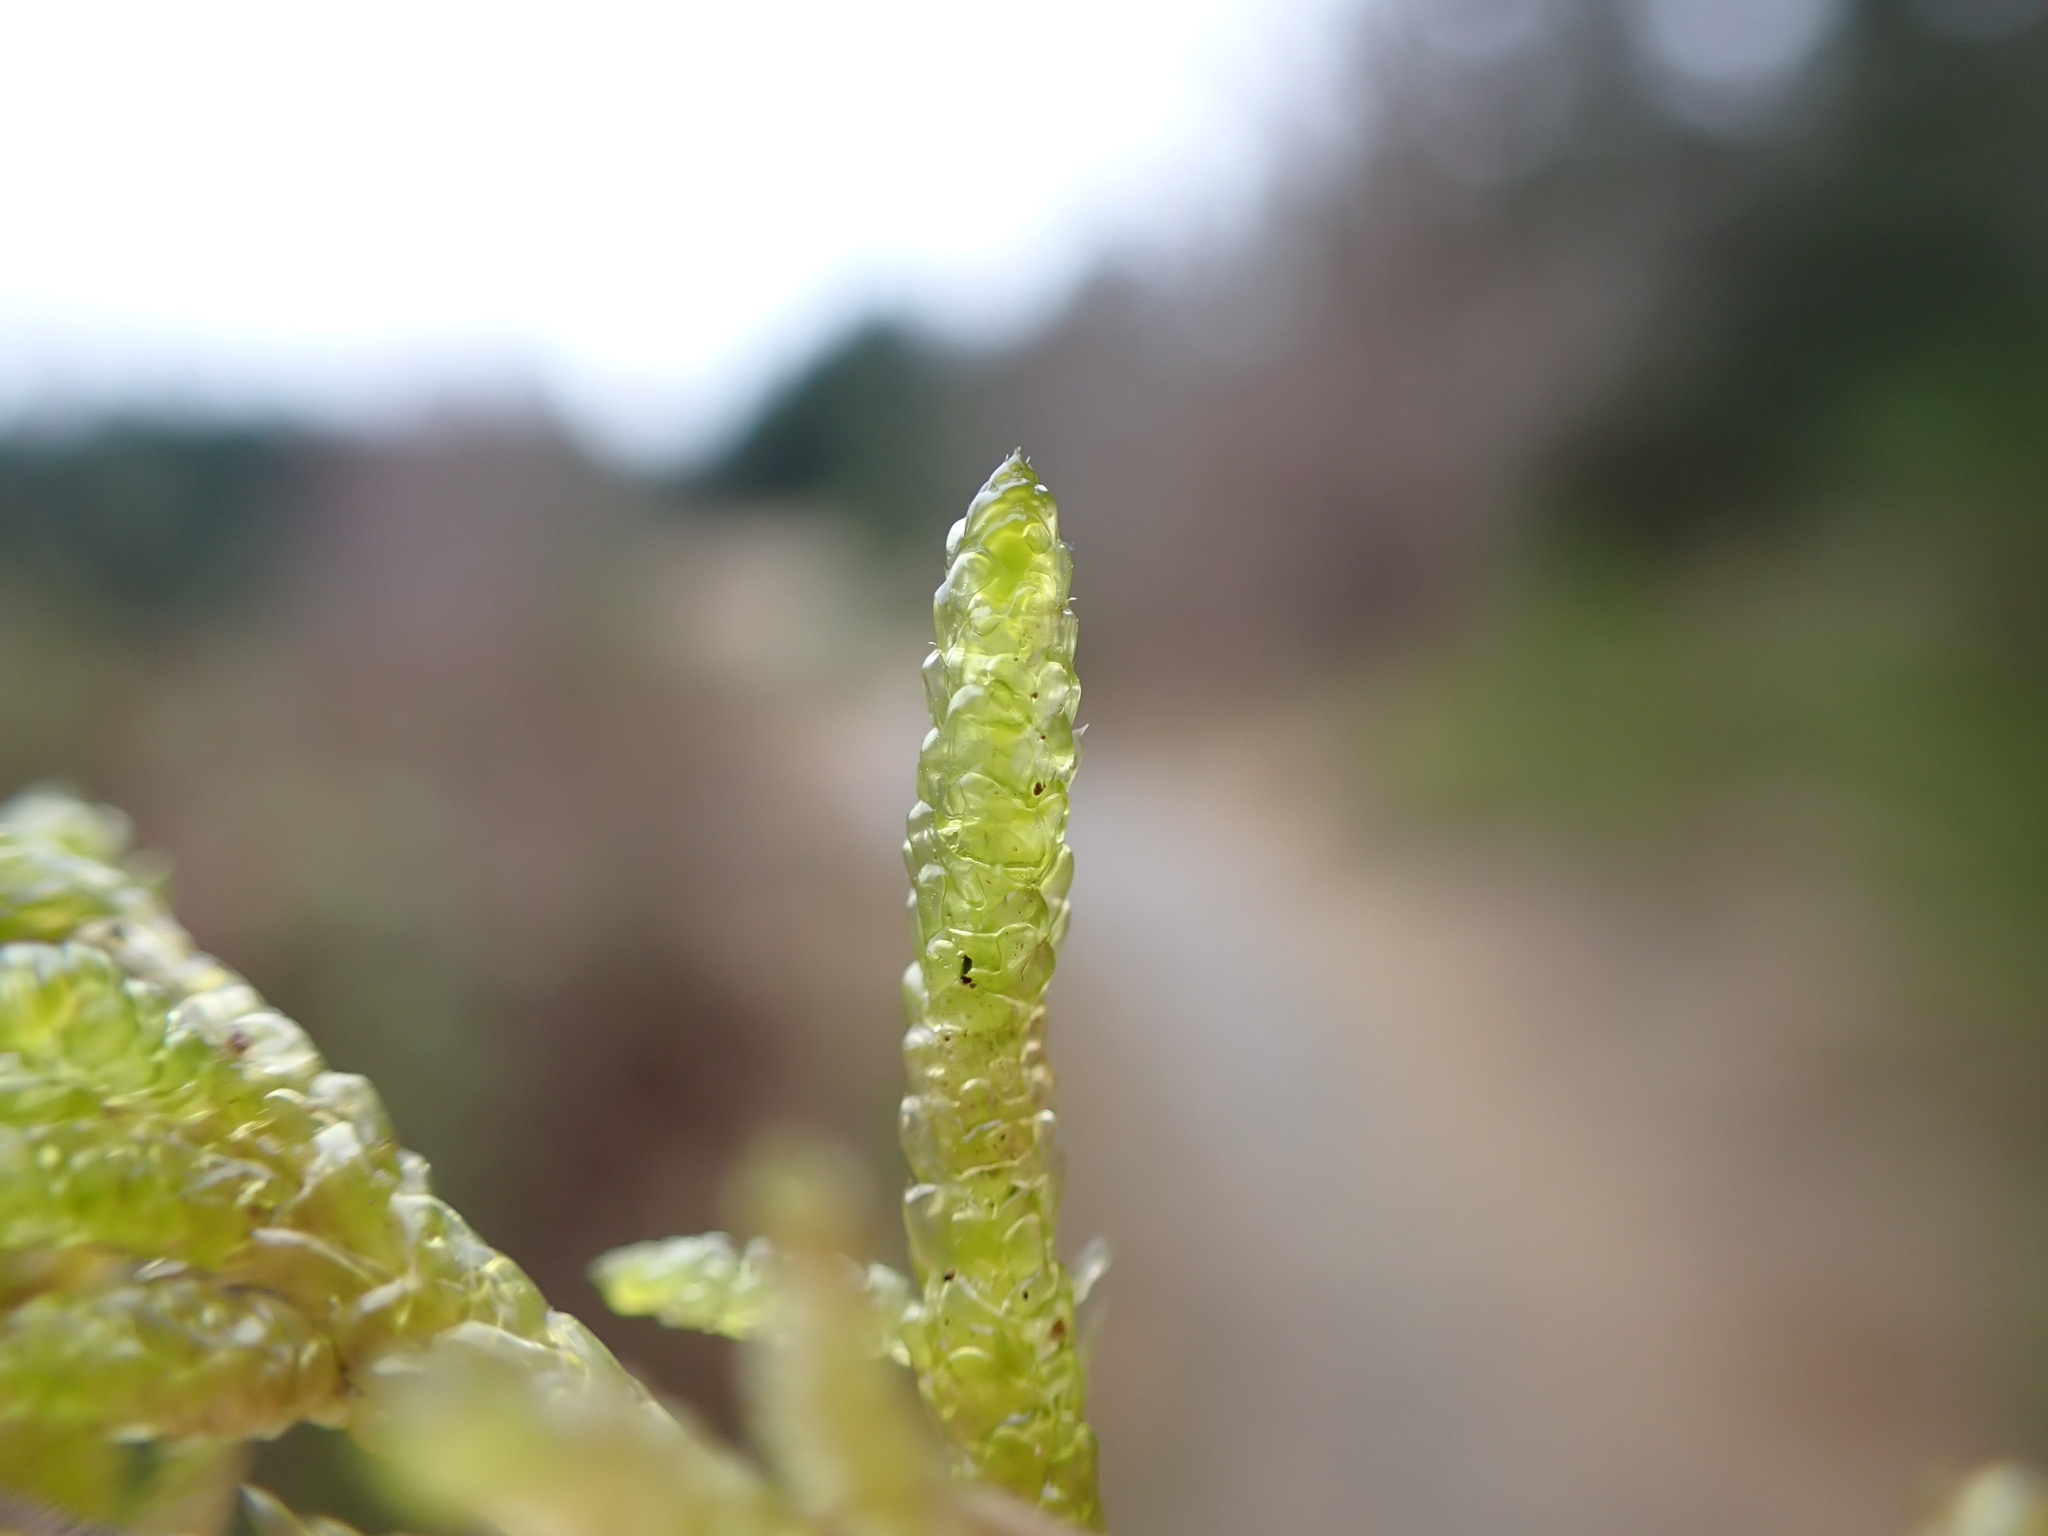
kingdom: Plantae
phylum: Bryophyta
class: Bryopsida
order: Hypnales
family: Brachytheciaceae
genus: Pseudoscleropodium
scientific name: Pseudoscleropodium purum
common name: Neat feather-moss
